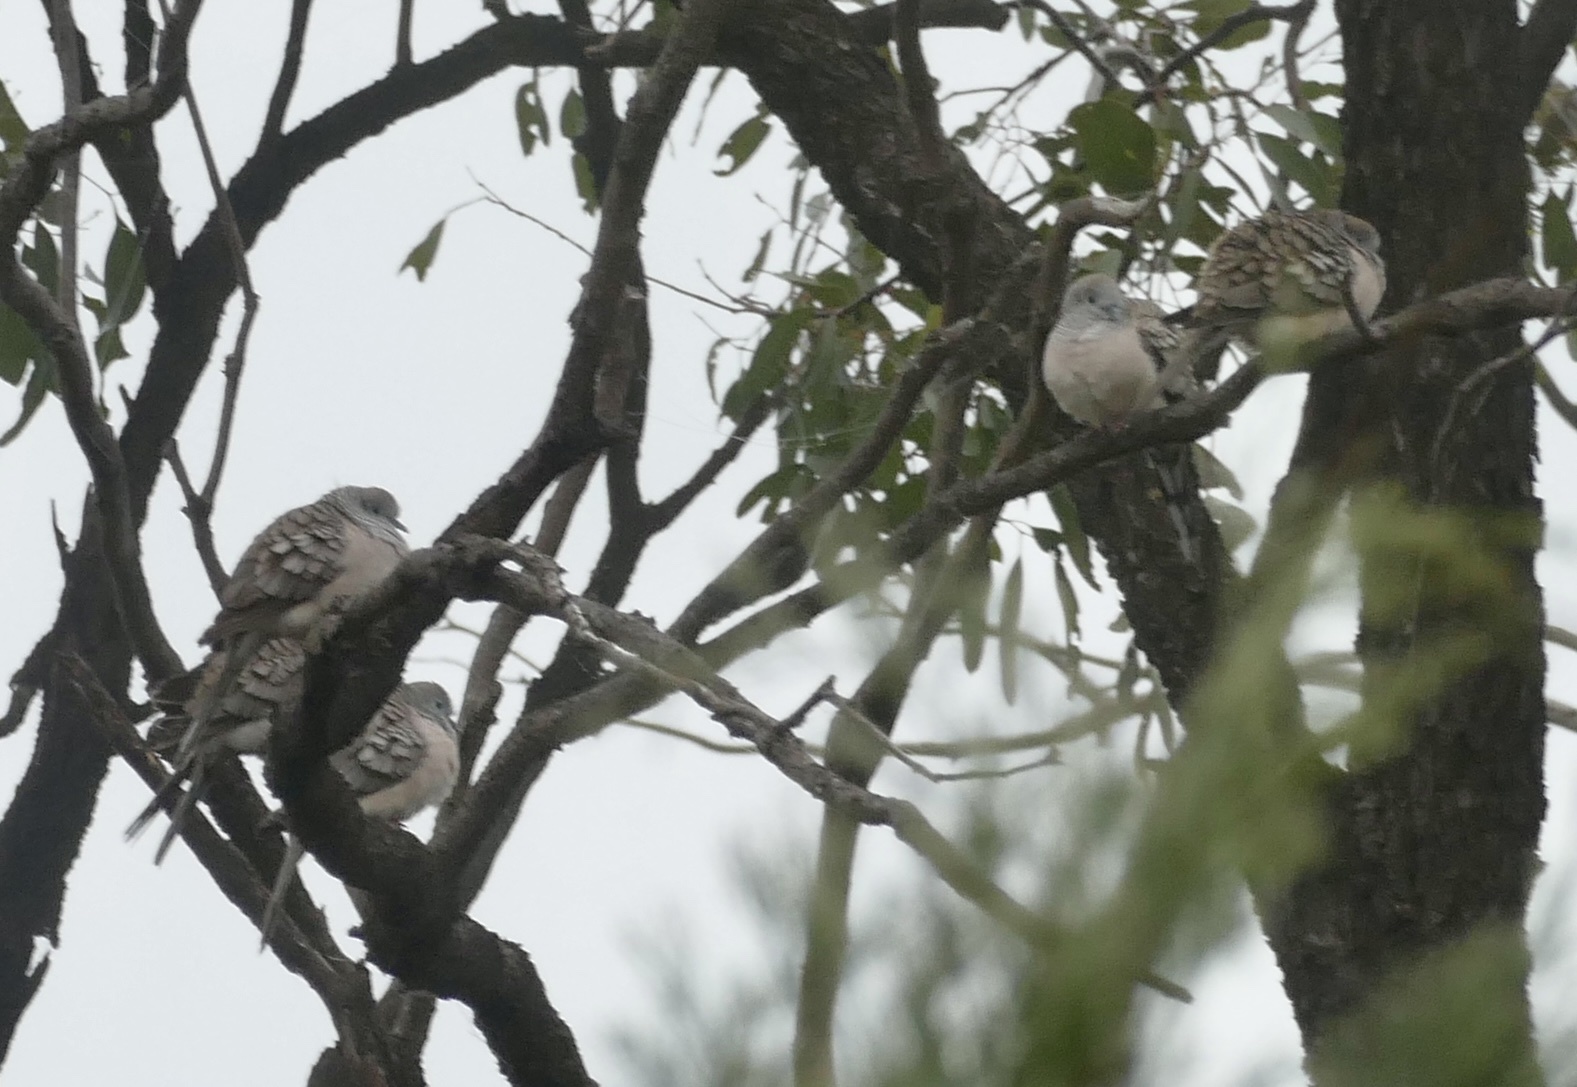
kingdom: Animalia
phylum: Chordata
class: Aves
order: Columbiformes
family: Columbidae
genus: Geopelia
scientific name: Geopelia placida
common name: Peaceful dove
